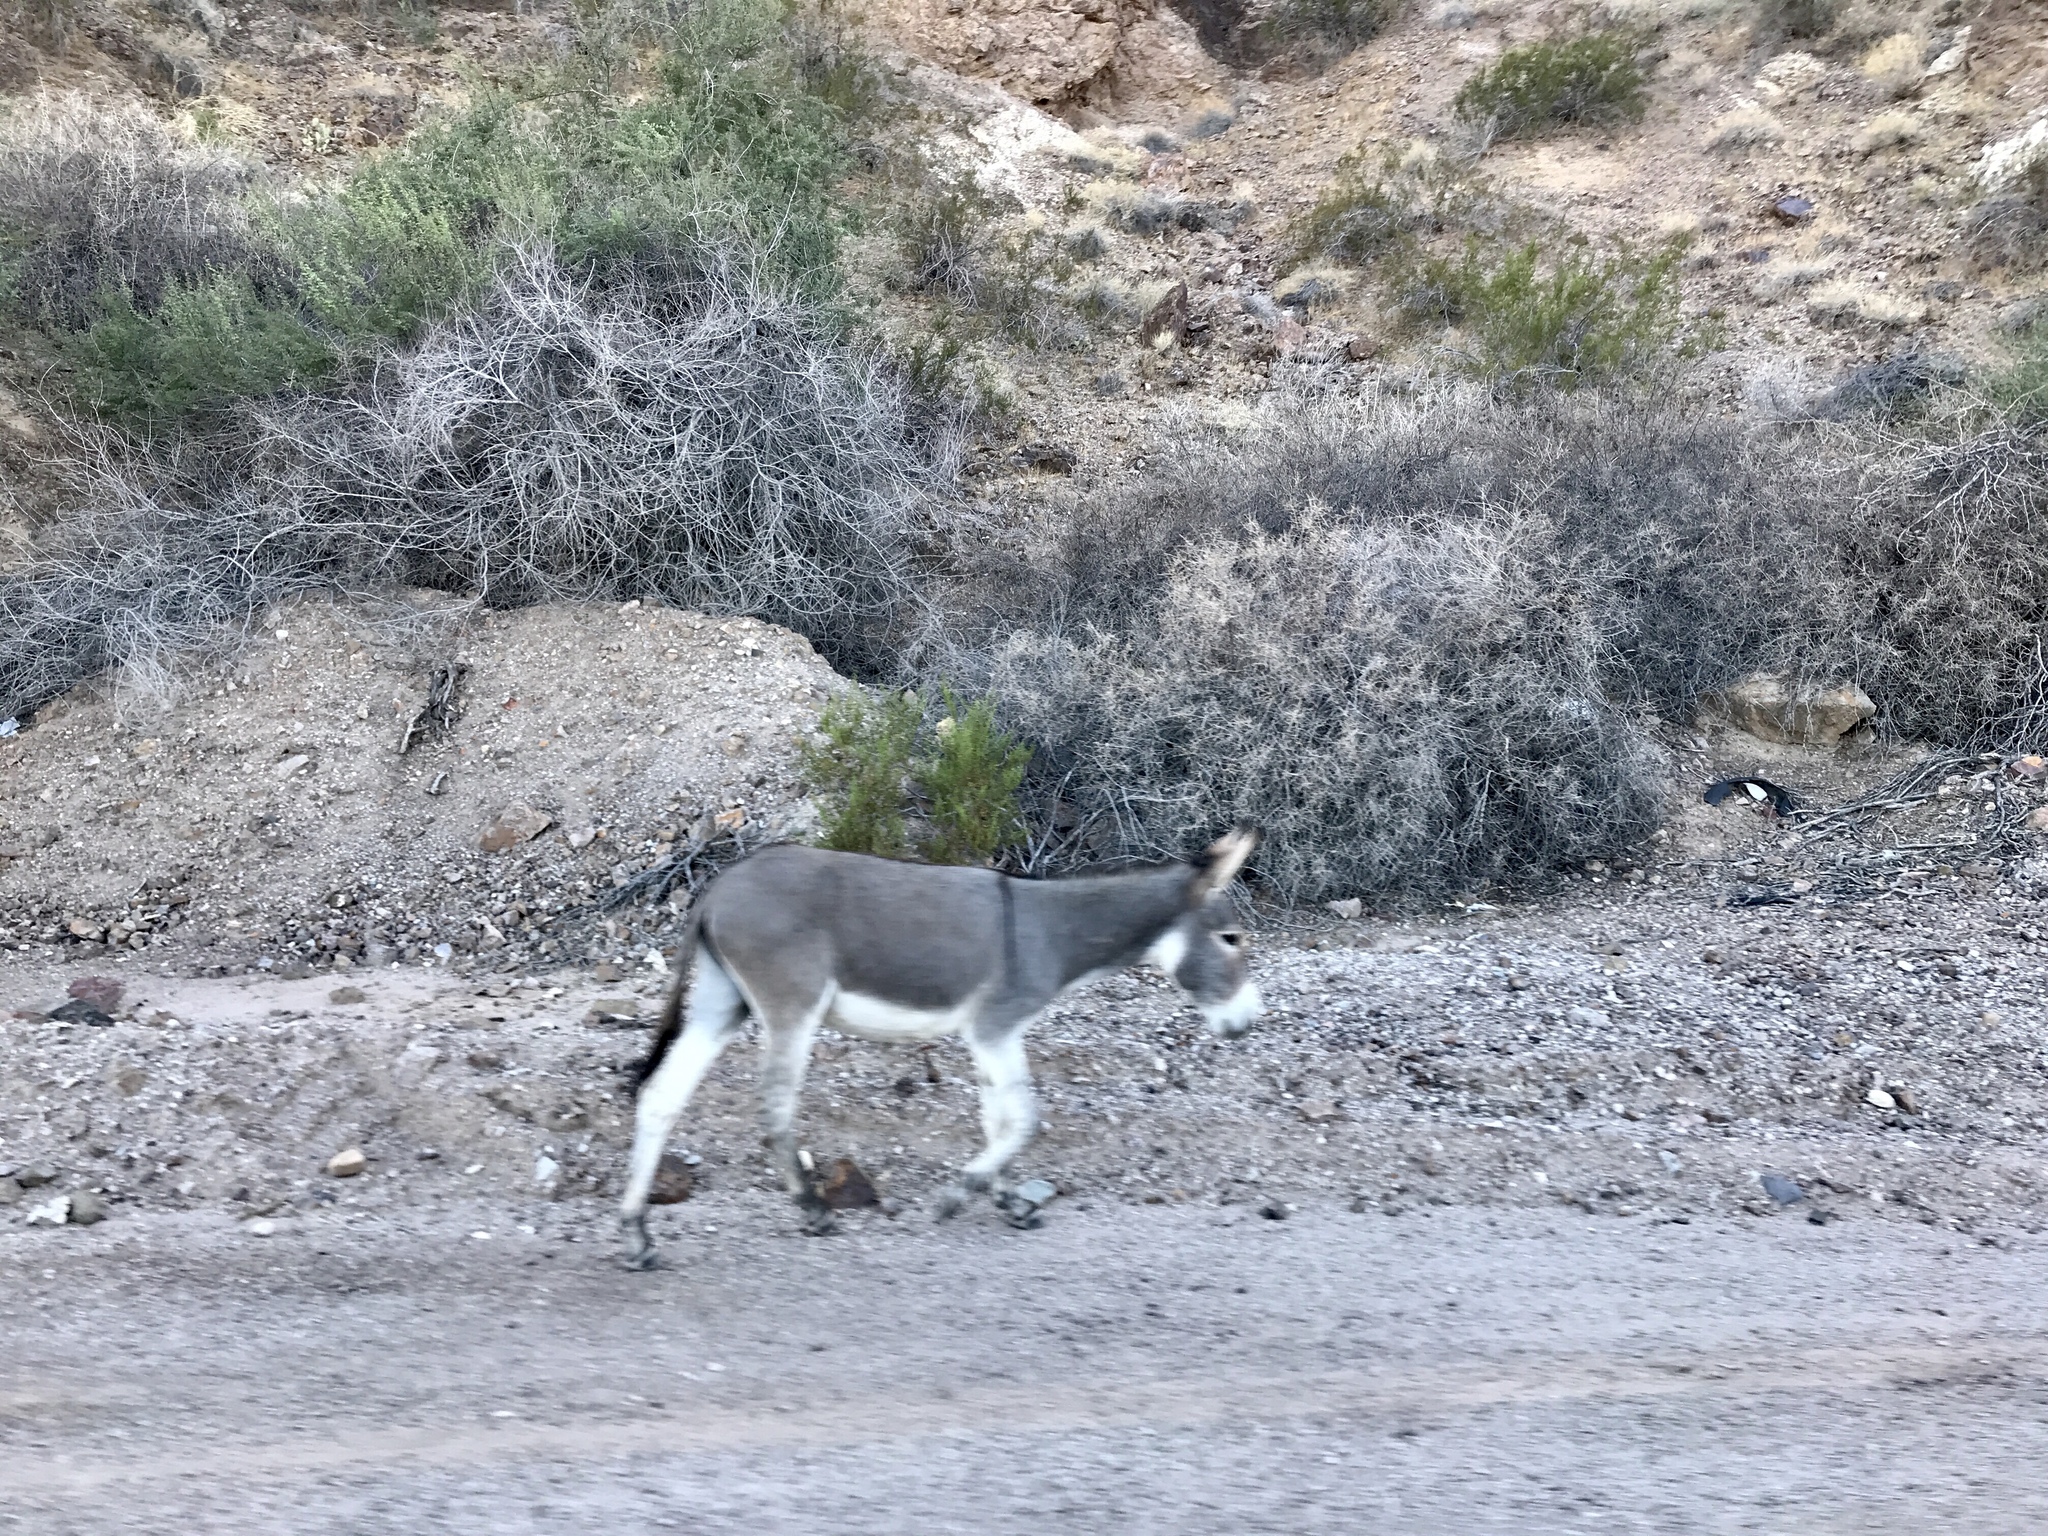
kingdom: Animalia
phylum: Chordata
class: Mammalia
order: Perissodactyla
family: Equidae
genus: Equus
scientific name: Equus asinus
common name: Ass
